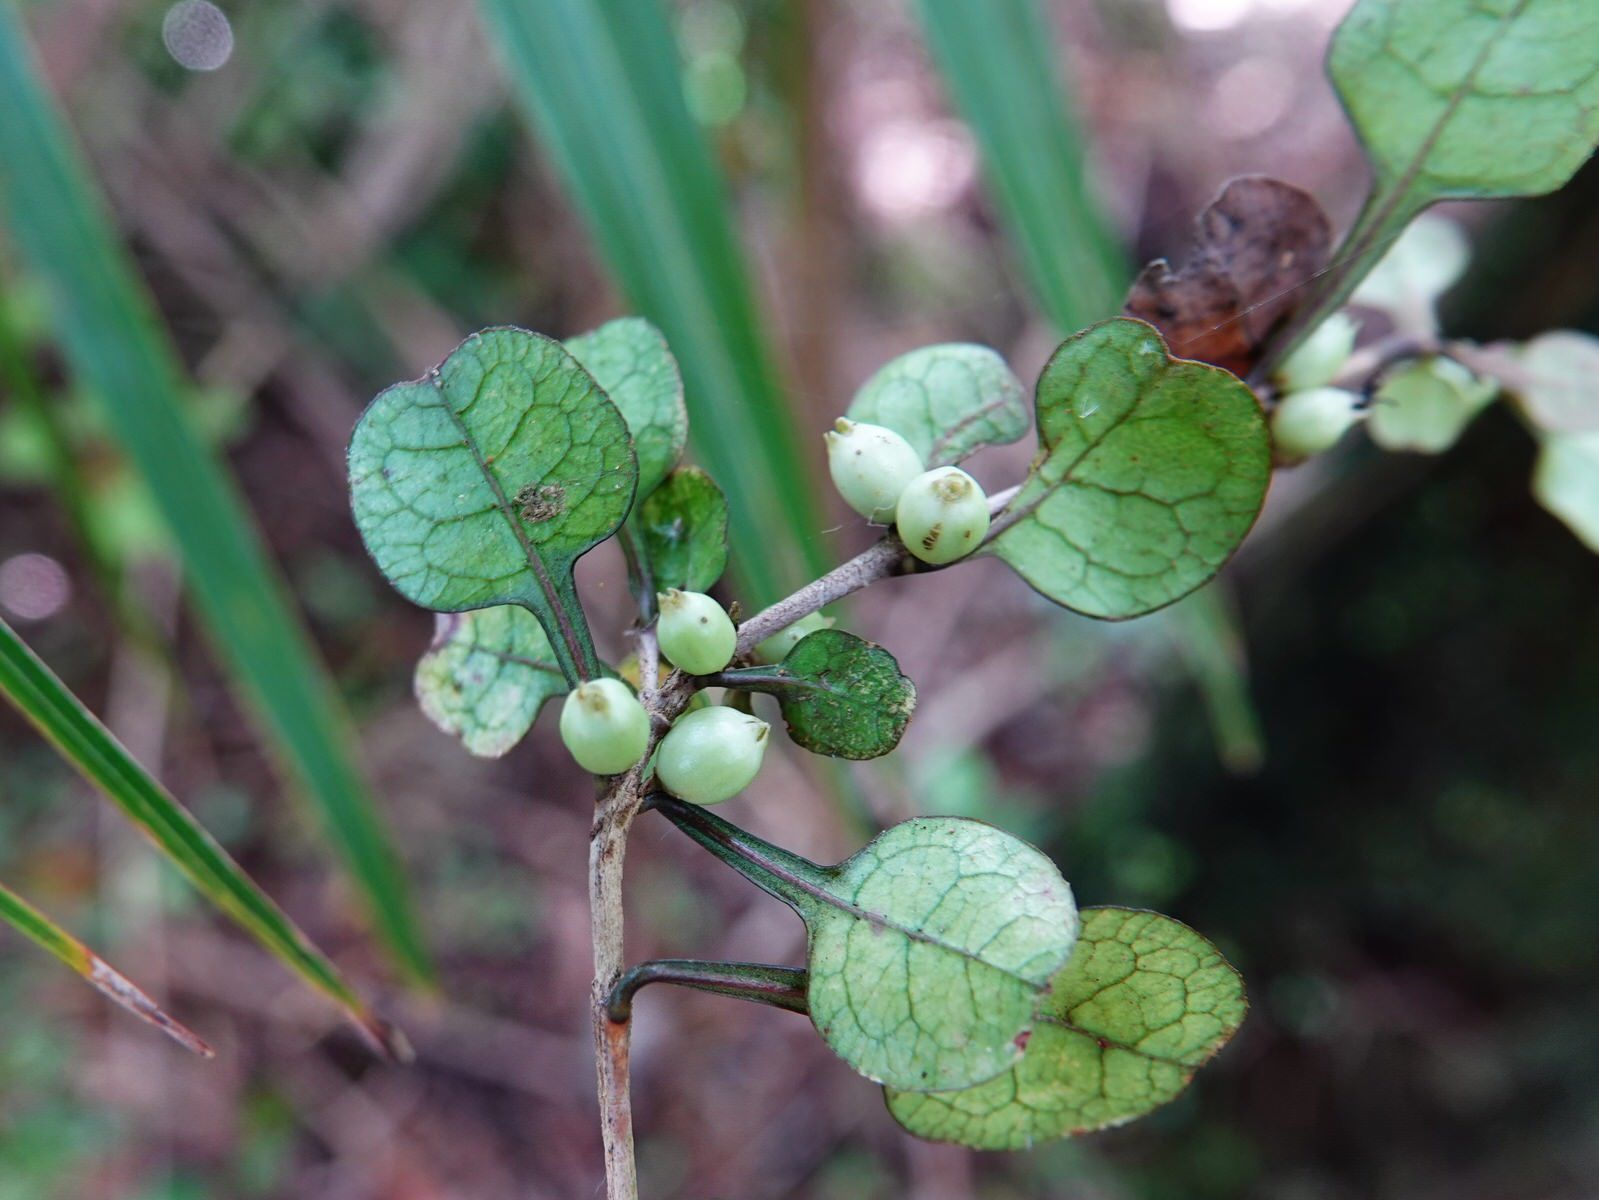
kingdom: Plantae
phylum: Tracheophyta
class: Magnoliopsida
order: Gentianales
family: Rubiaceae
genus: Coprosma
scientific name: Coprosma spathulata
